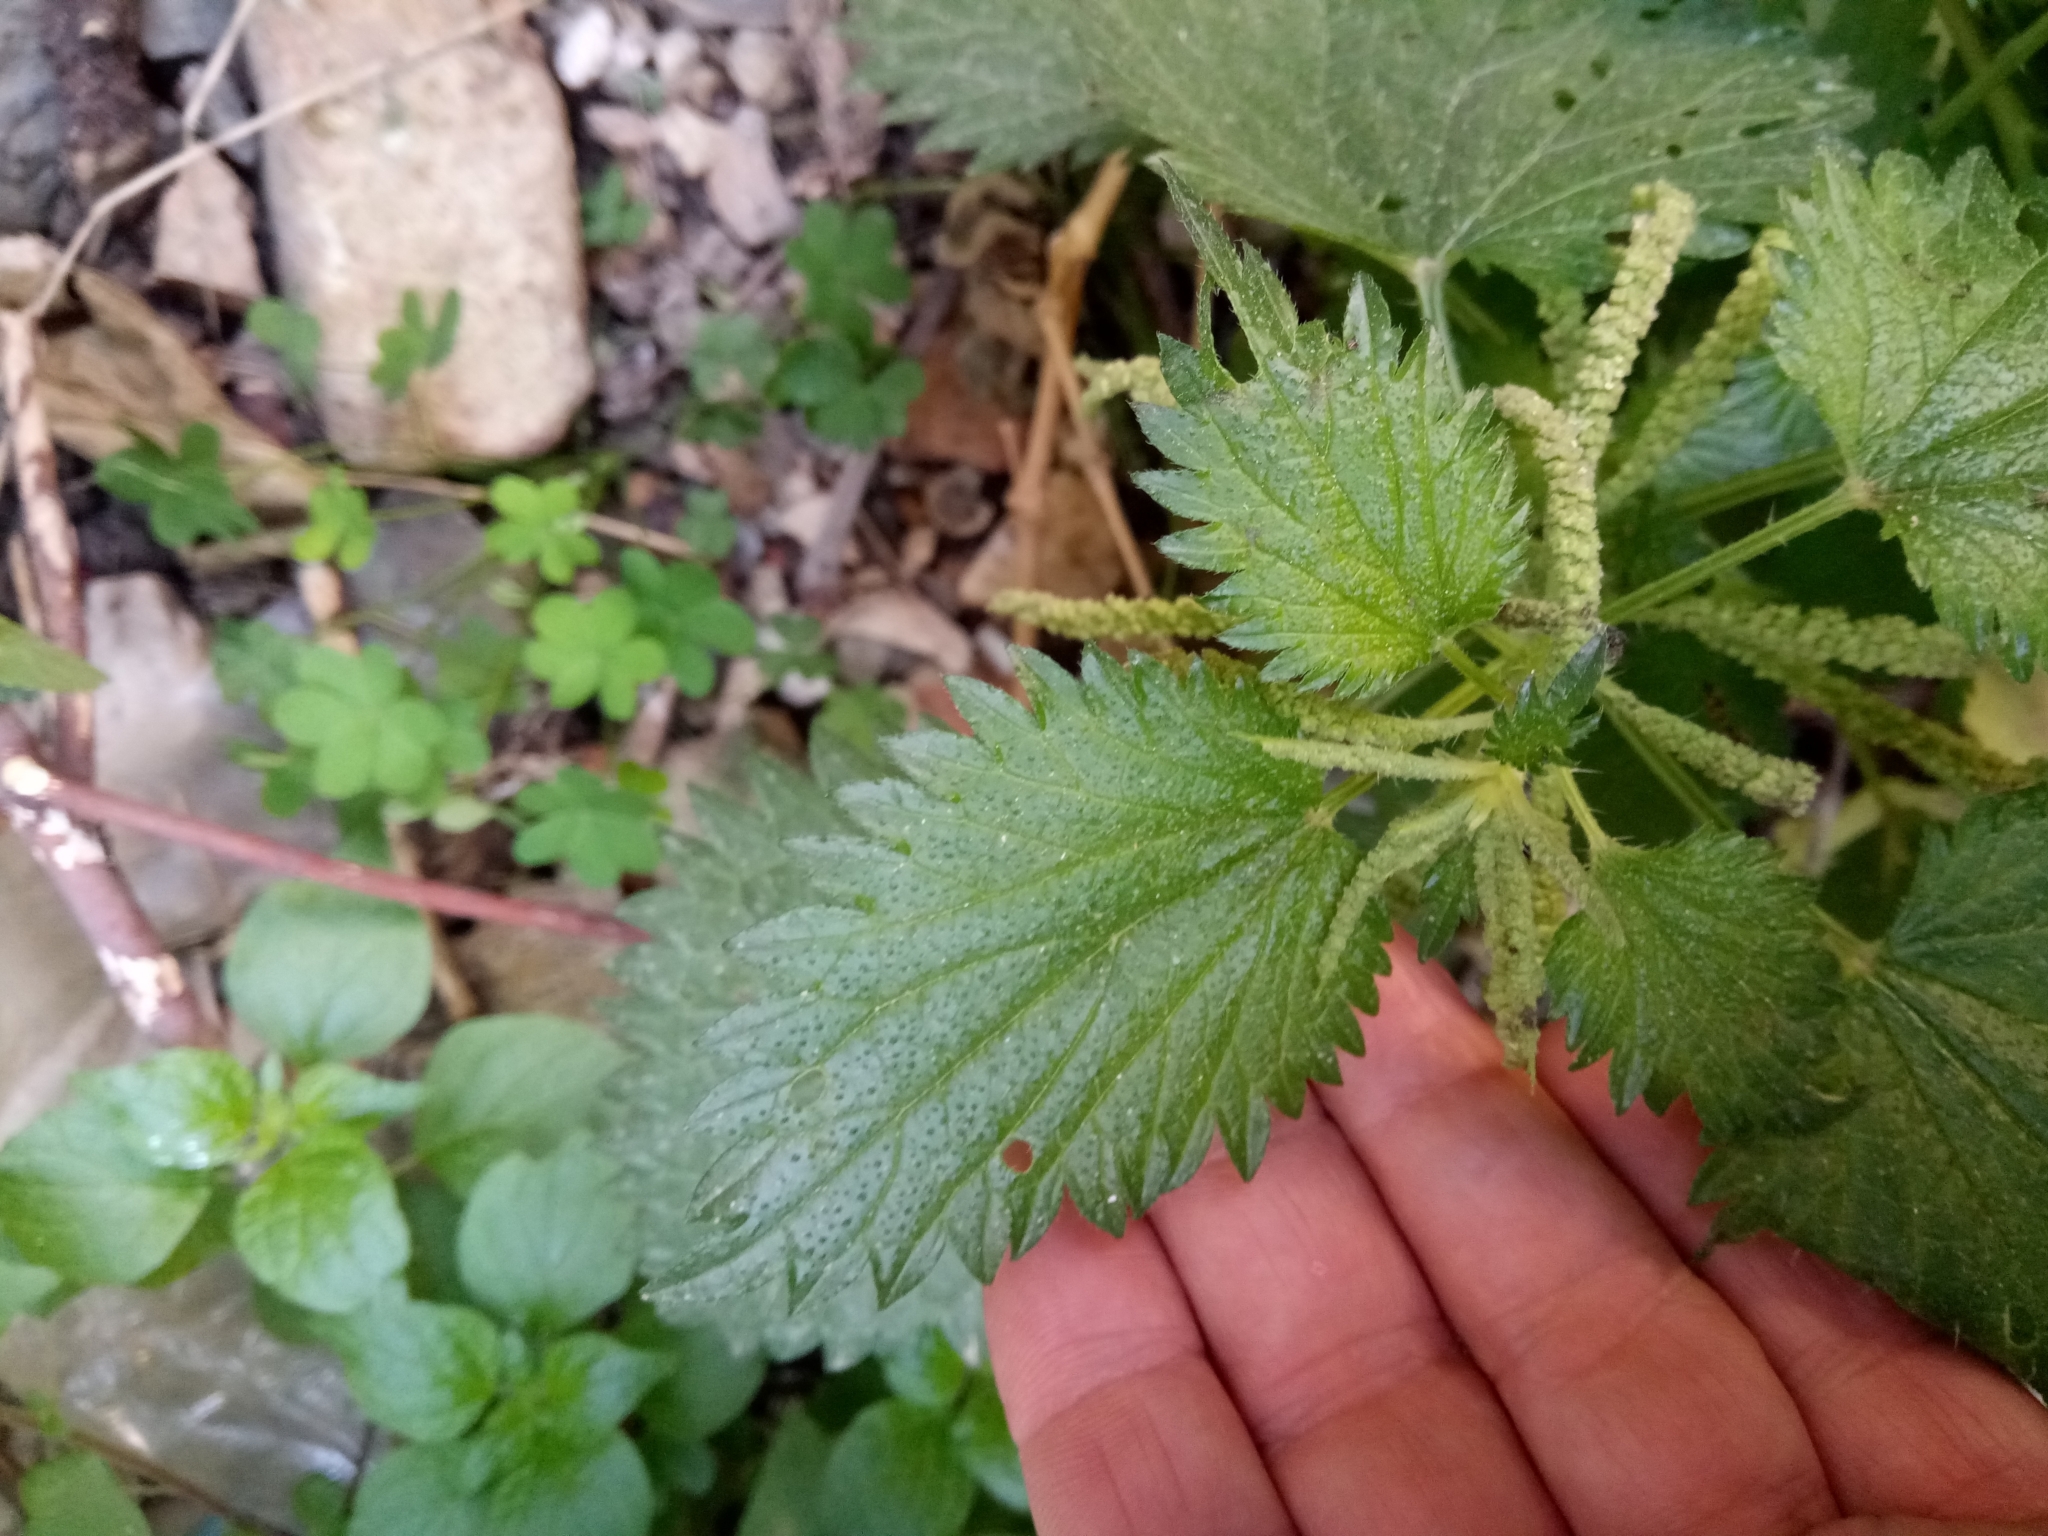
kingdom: Plantae
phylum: Tracheophyta
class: Magnoliopsida
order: Rosales
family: Urticaceae
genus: Urtica
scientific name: Urtica membranacea
